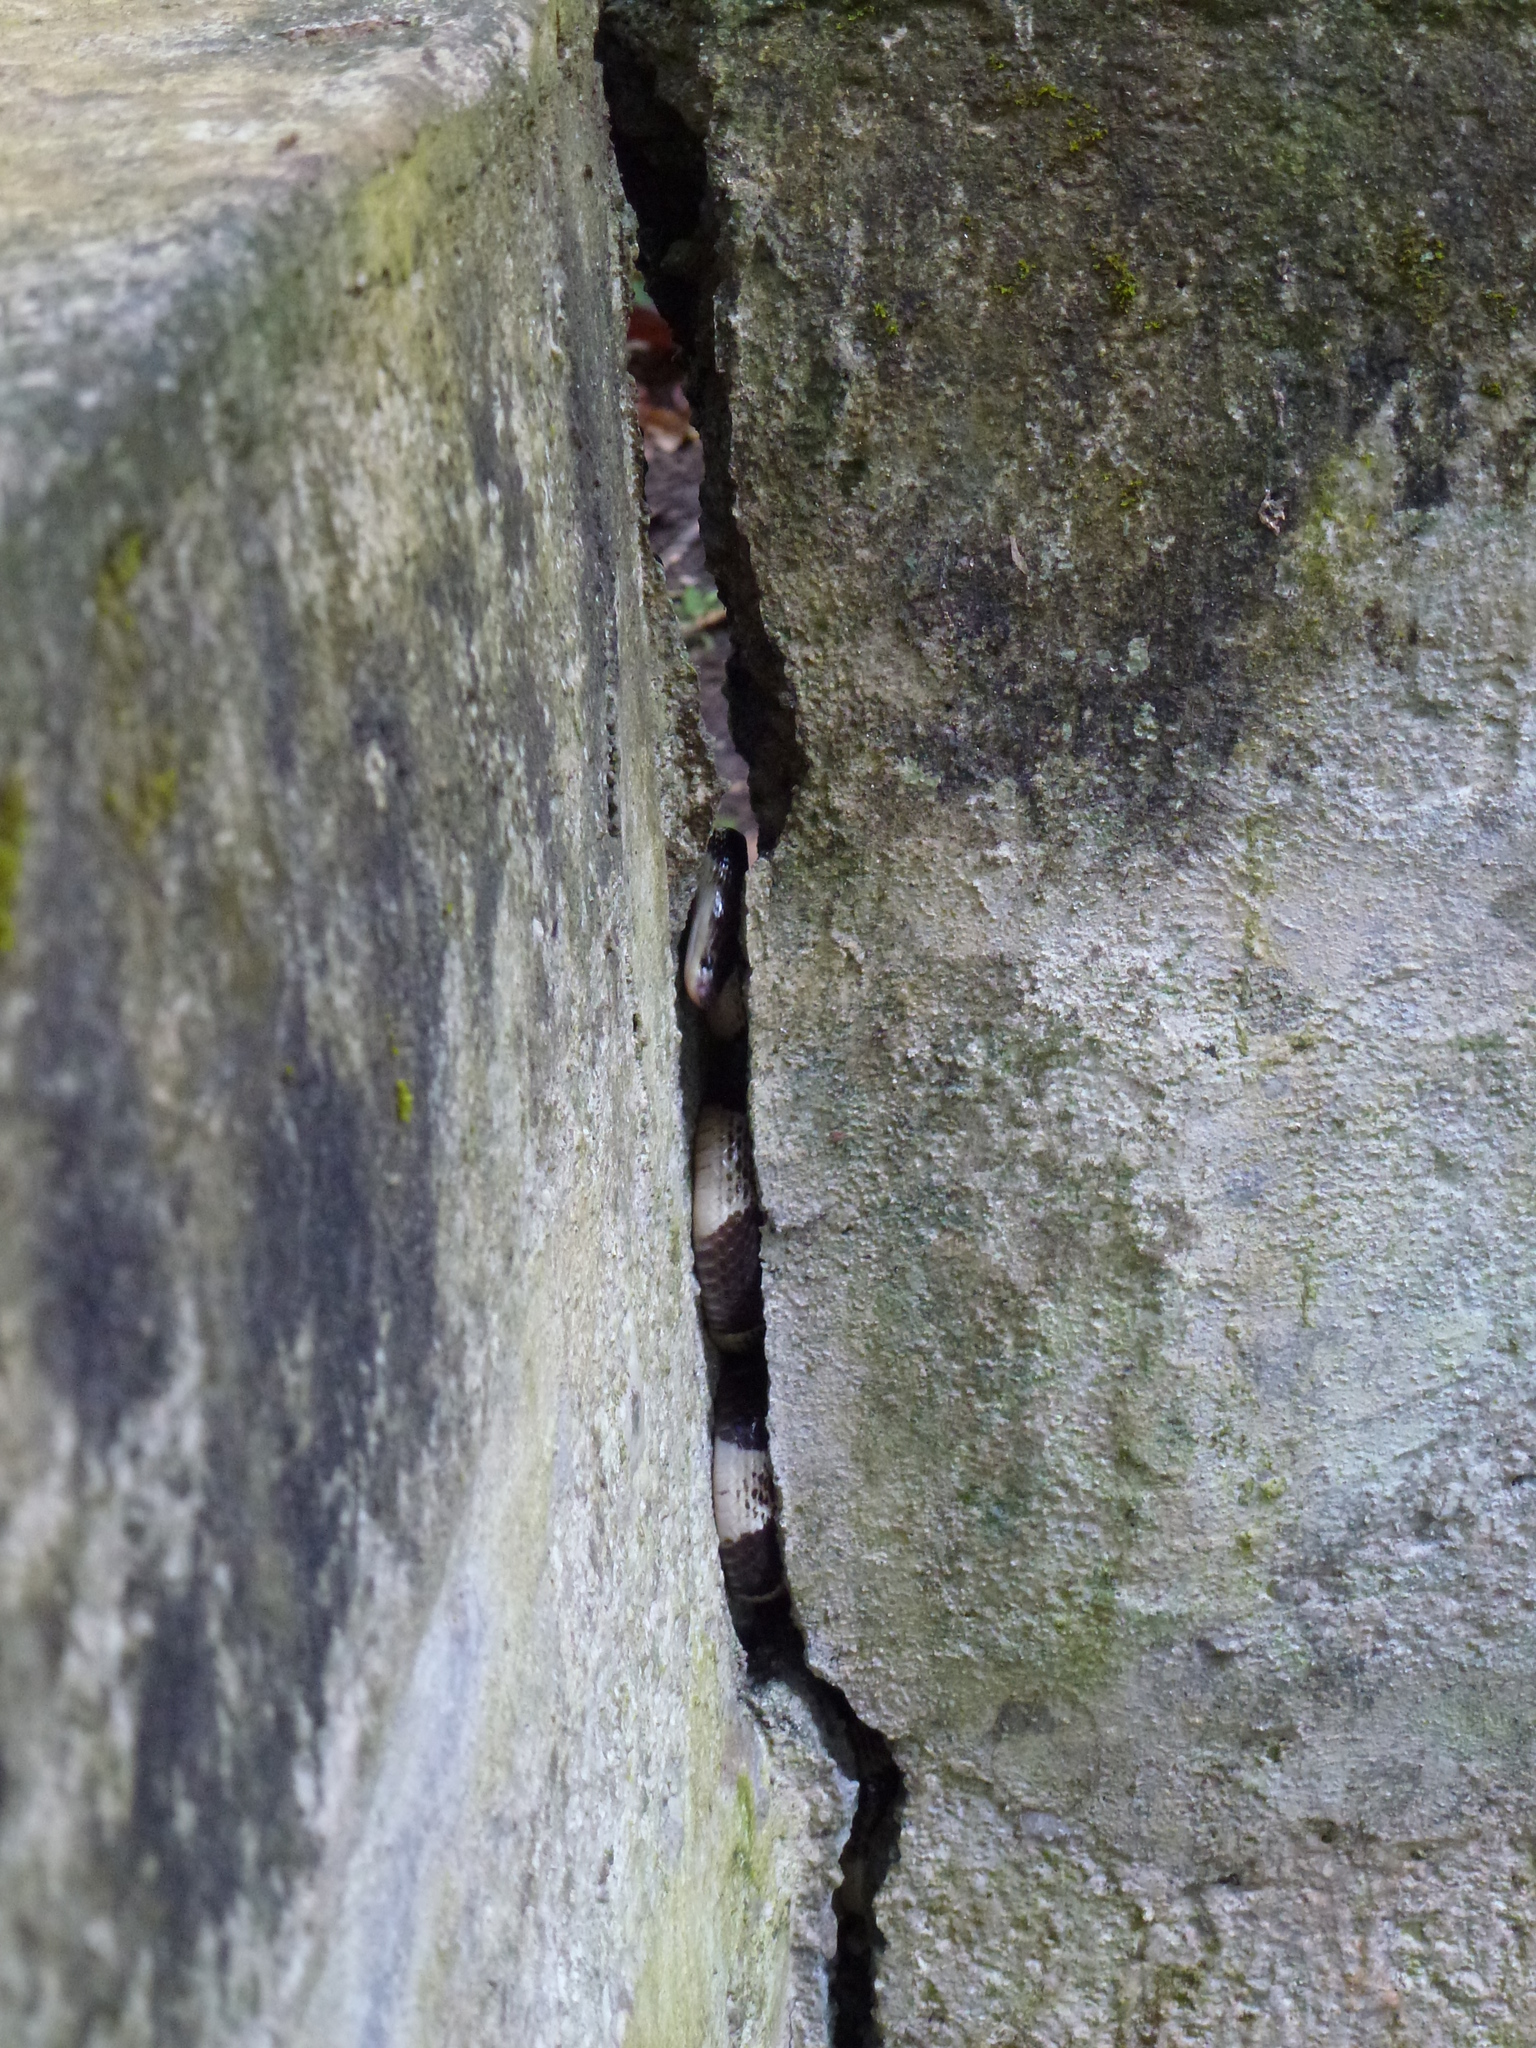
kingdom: Animalia
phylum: Chordata
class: Squamata
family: Elapidae
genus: Bungarus
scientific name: Bungarus candidus
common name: Blue krait/malayan krait
